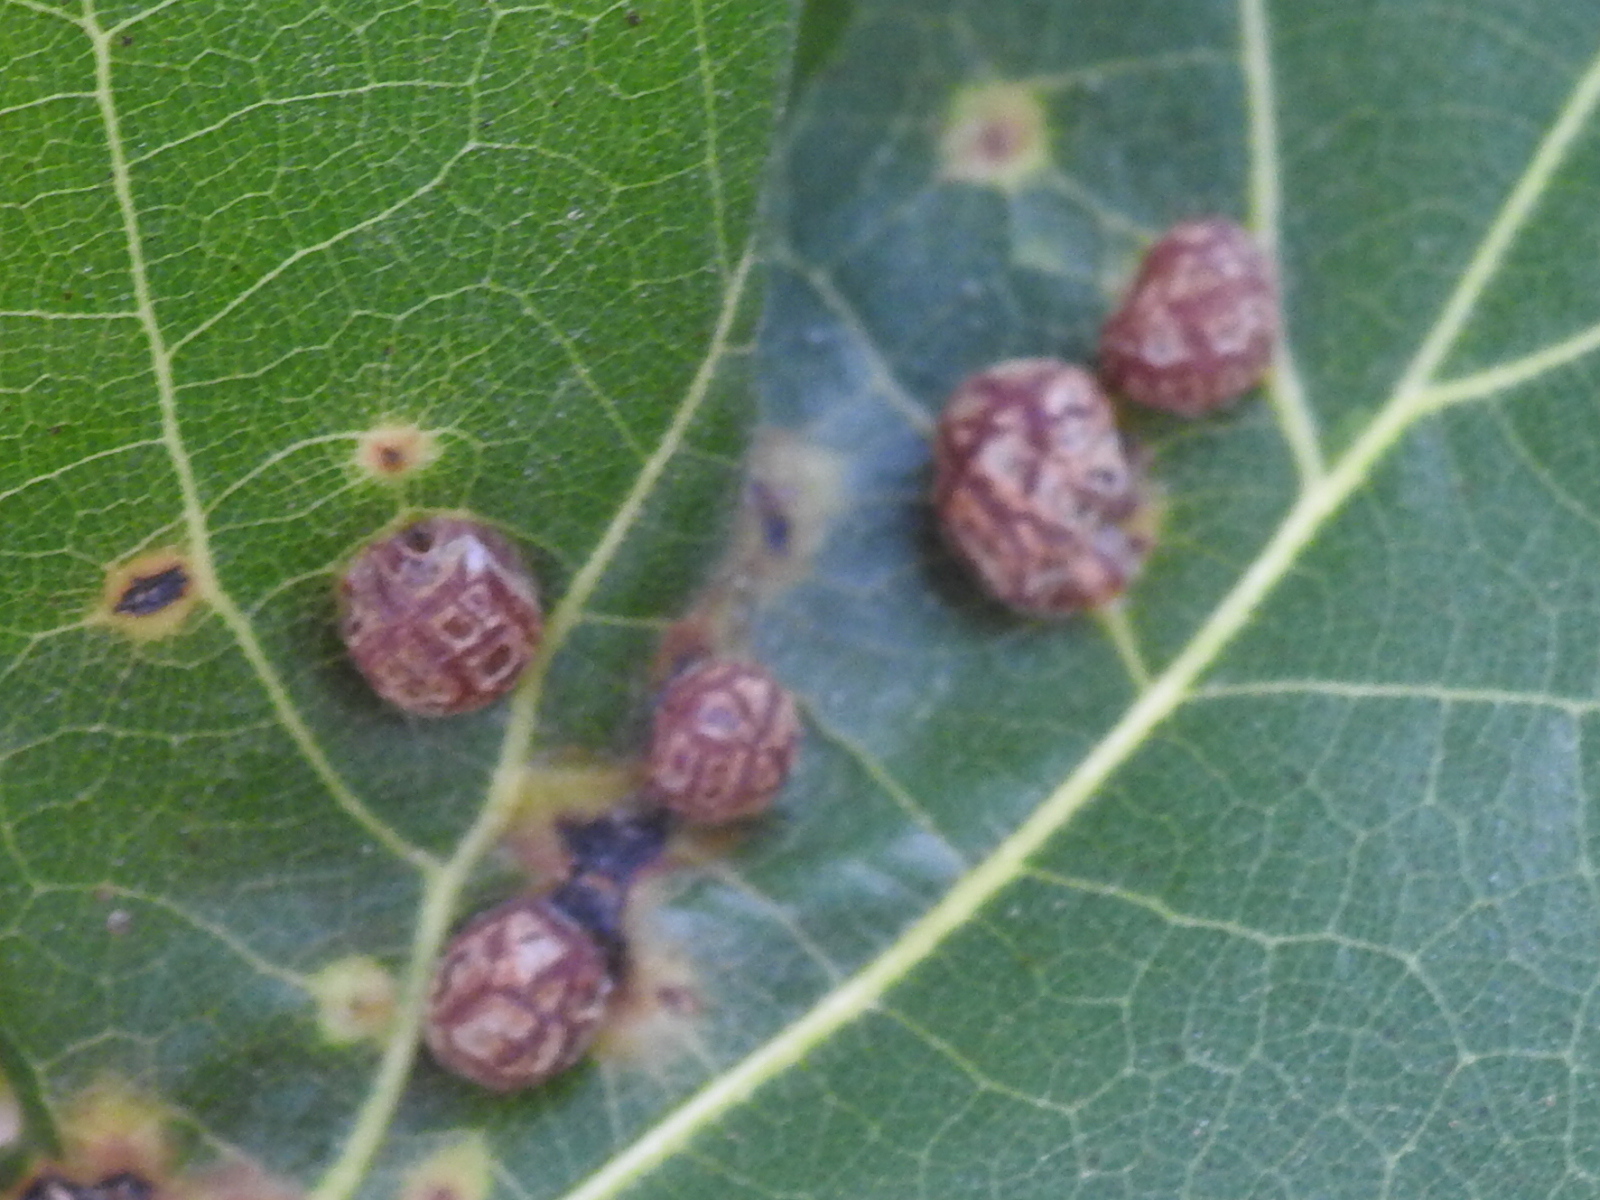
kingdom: Animalia
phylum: Arthropoda
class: Insecta
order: Diptera
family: Cecidomyiidae
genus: Polystepha
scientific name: Polystepha pilulae
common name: Oak leaf gall midge
